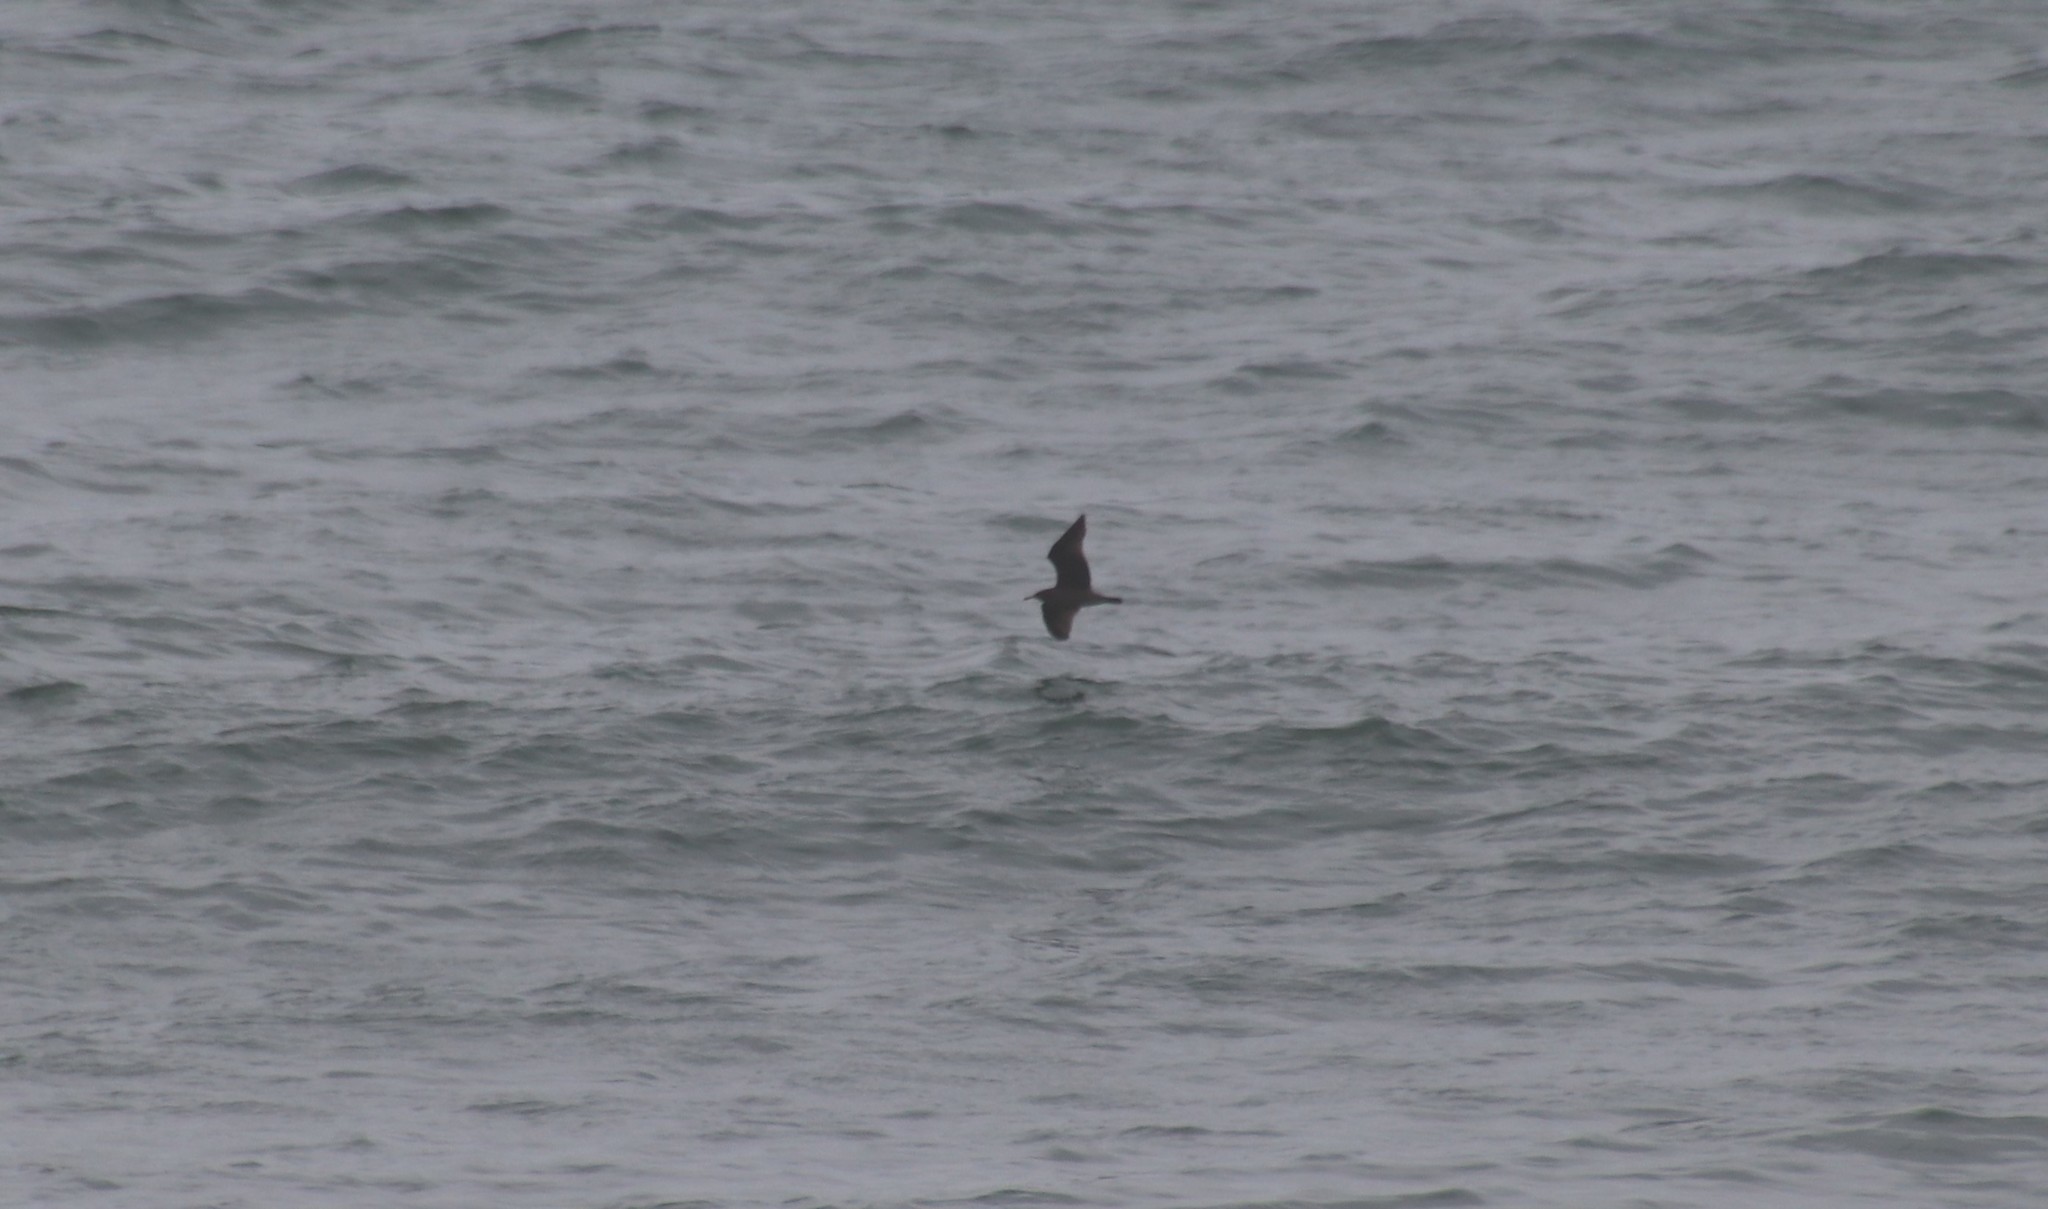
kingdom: Animalia
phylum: Chordata
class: Aves
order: Charadriiformes
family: Laridae
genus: Larus
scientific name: Larus heermanni
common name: Heermann's gull
